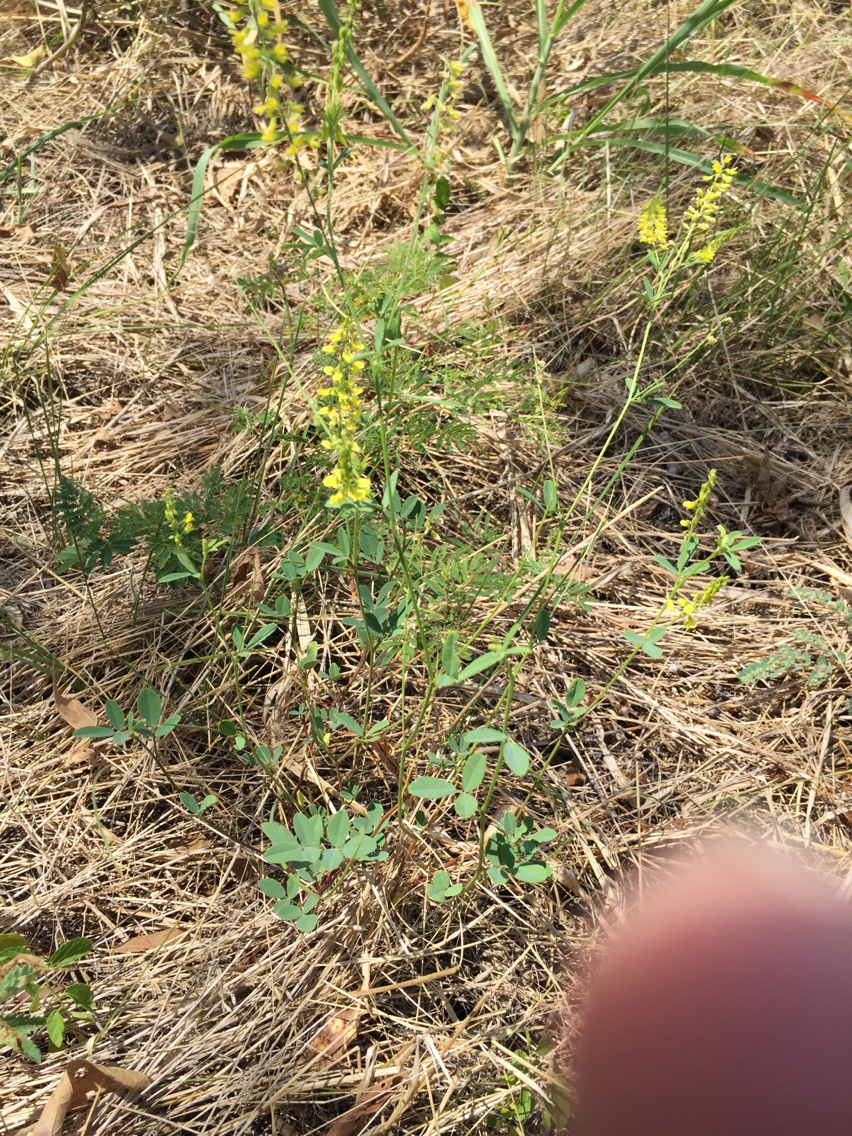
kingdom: Plantae
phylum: Tracheophyta
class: Magnoliopsida
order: Fabales
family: Fabaceae
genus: Melilotus
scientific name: Melilotus officinalis
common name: Sweetclover
